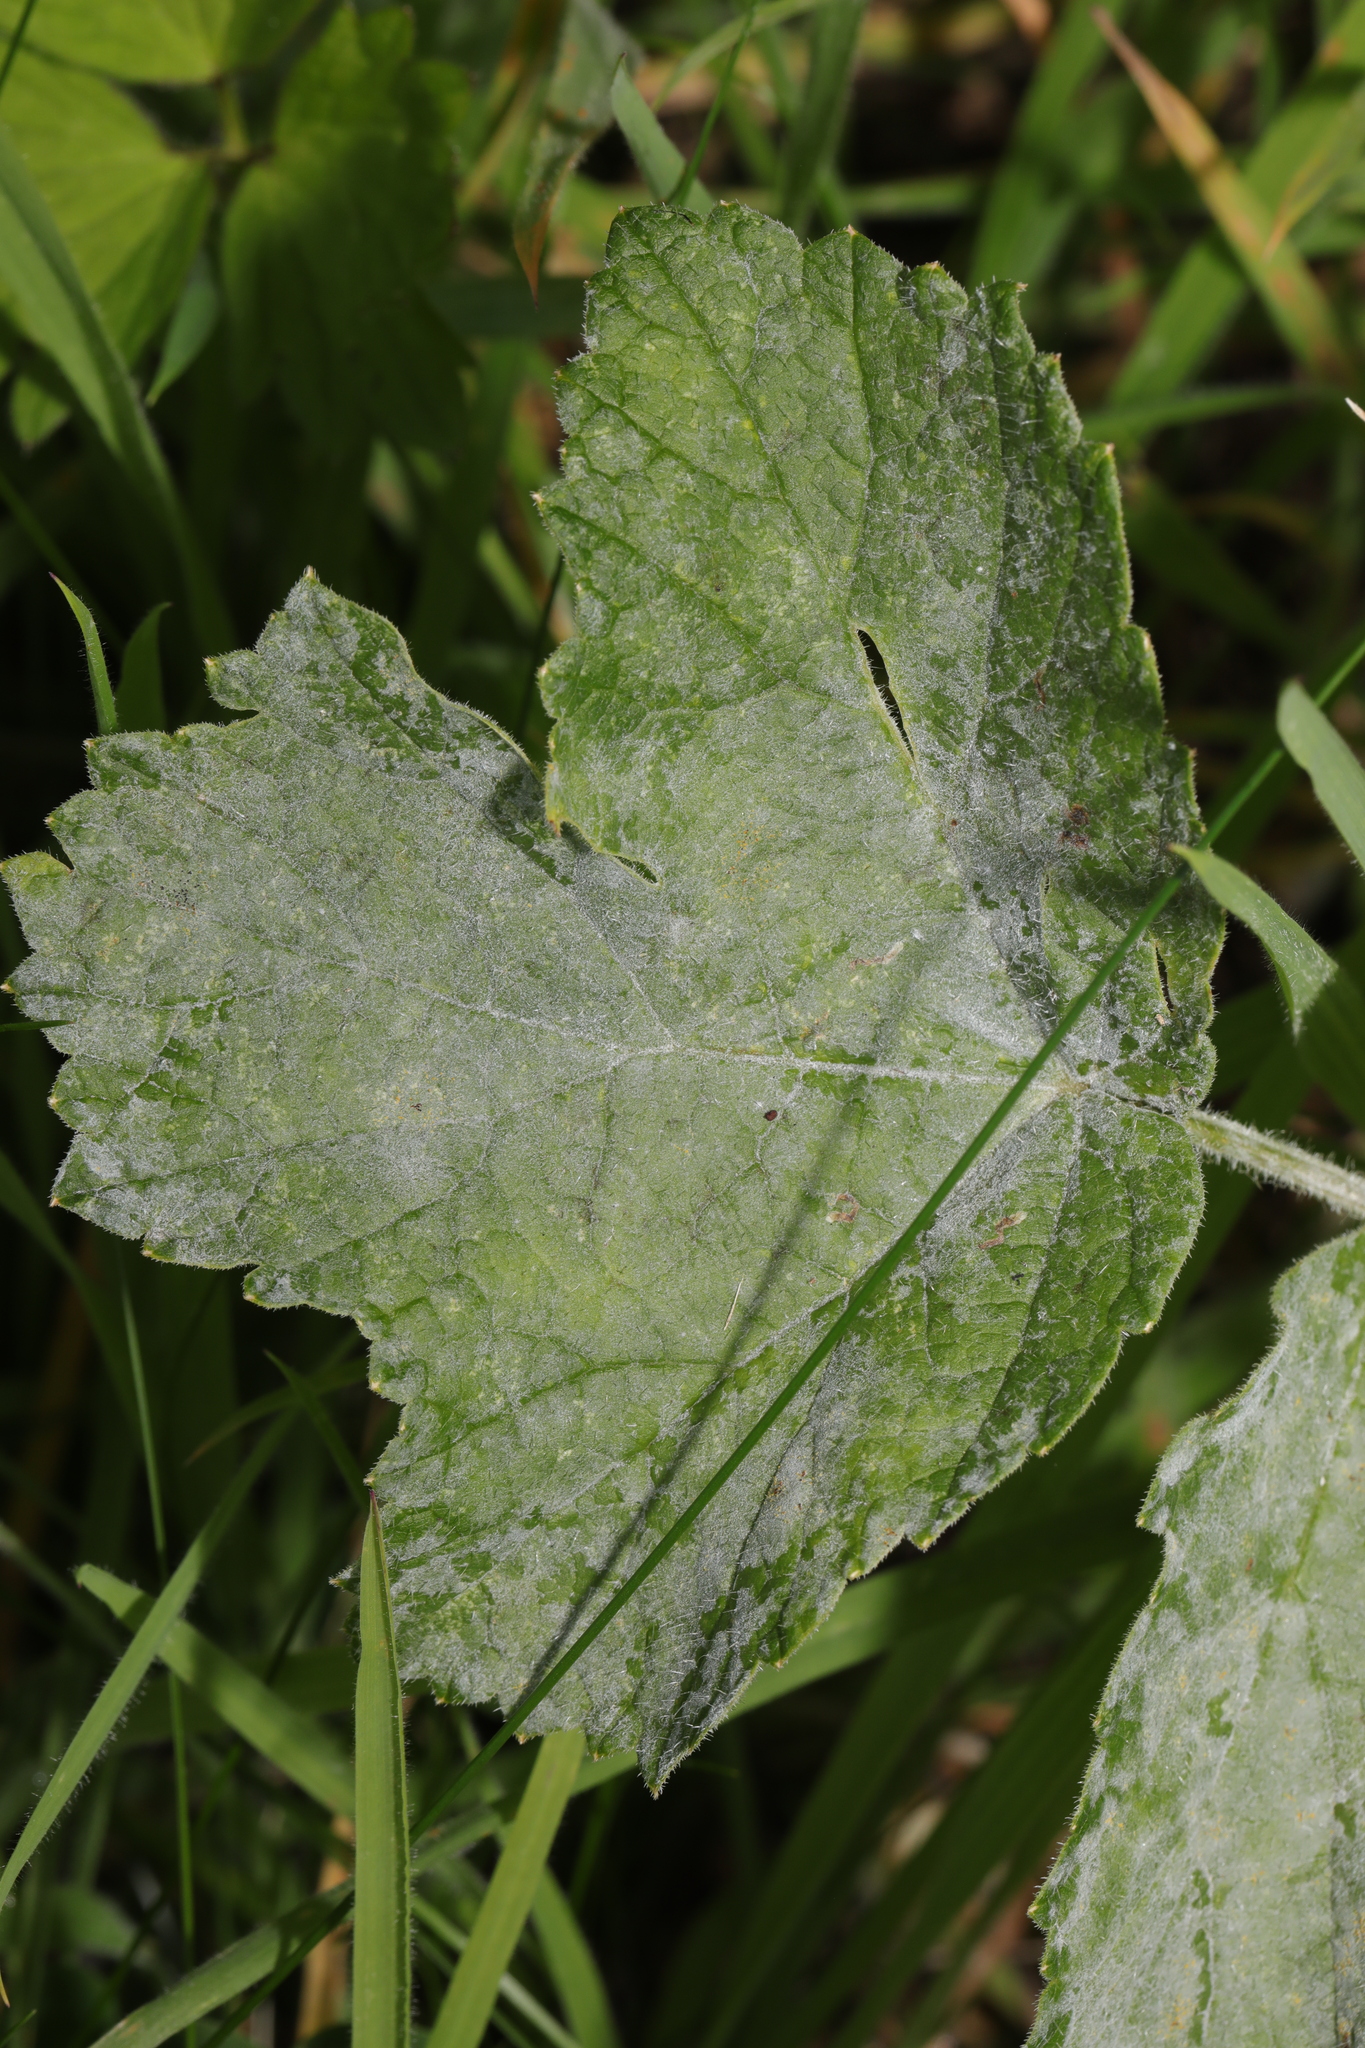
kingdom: Fungi
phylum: Ascomycota
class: Leotiomycetes
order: Helotiales
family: Erysiphaceae
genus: Erysiphe
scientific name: Erysiphe heraclei
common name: Umbellifer mildew
